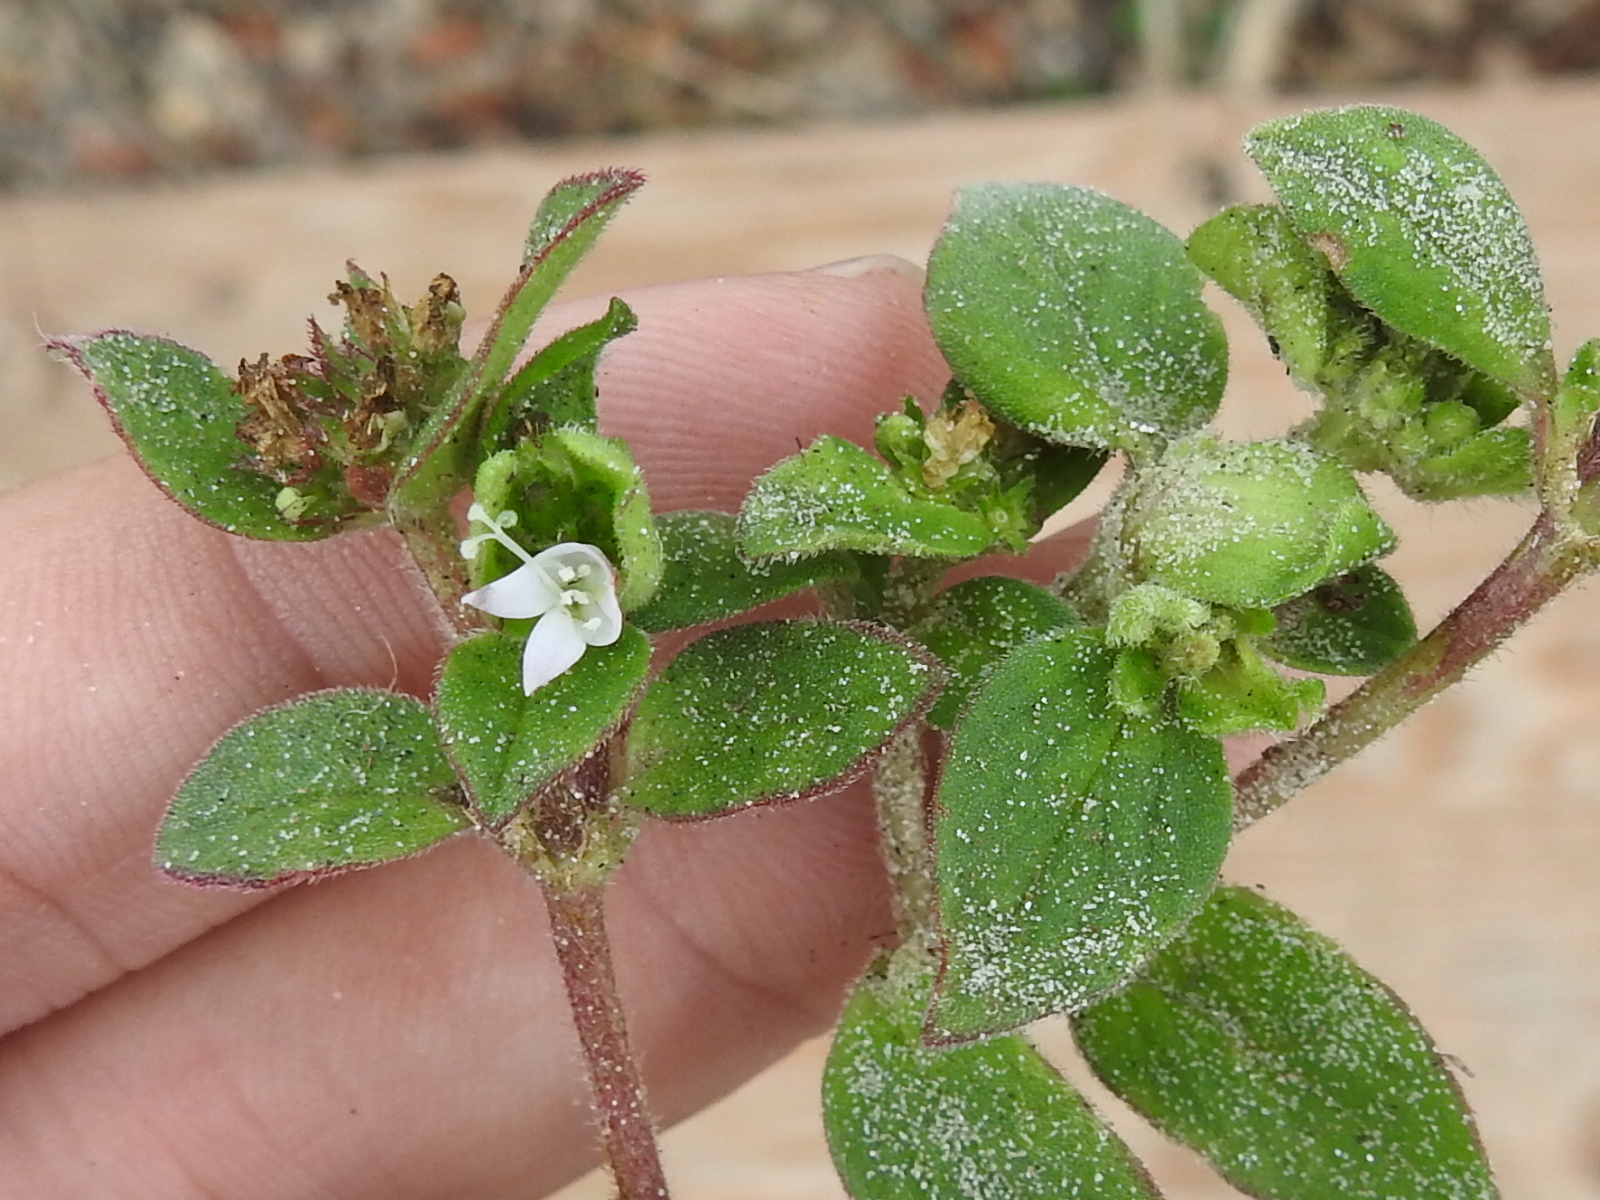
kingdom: Plantae
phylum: Tracheophyta
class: Magnoliopsida
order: Gentianales
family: Rubiaceae
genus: Richardia
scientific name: Richardia brasiliensis
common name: Tropical mexican clover
